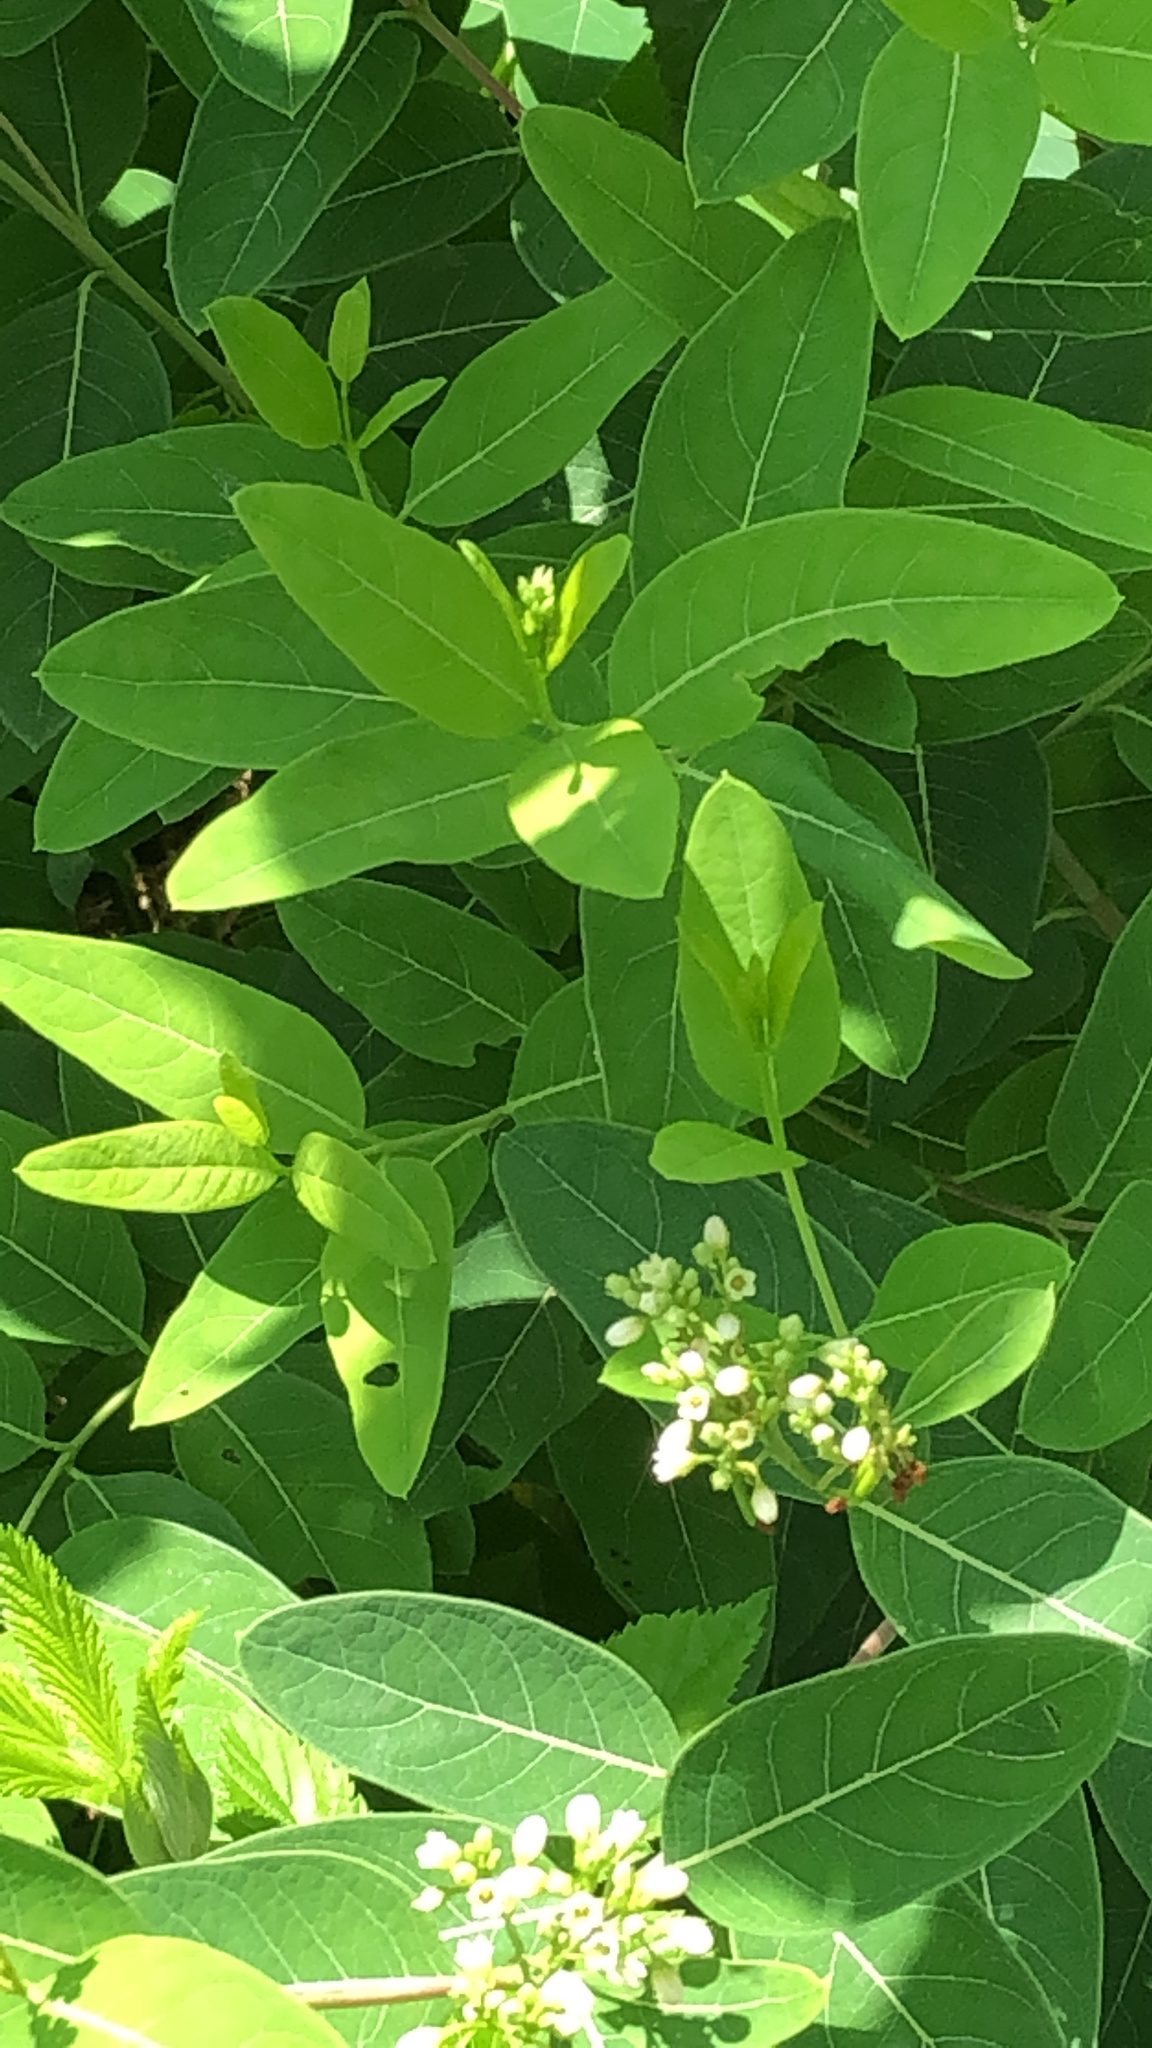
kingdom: Plantae
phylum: Tracheophyta
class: Magnoliopsida
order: Gentianales
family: Apocynaceae
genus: Apocynum
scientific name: Apocynum cannabinum
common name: Hemp dogbane
